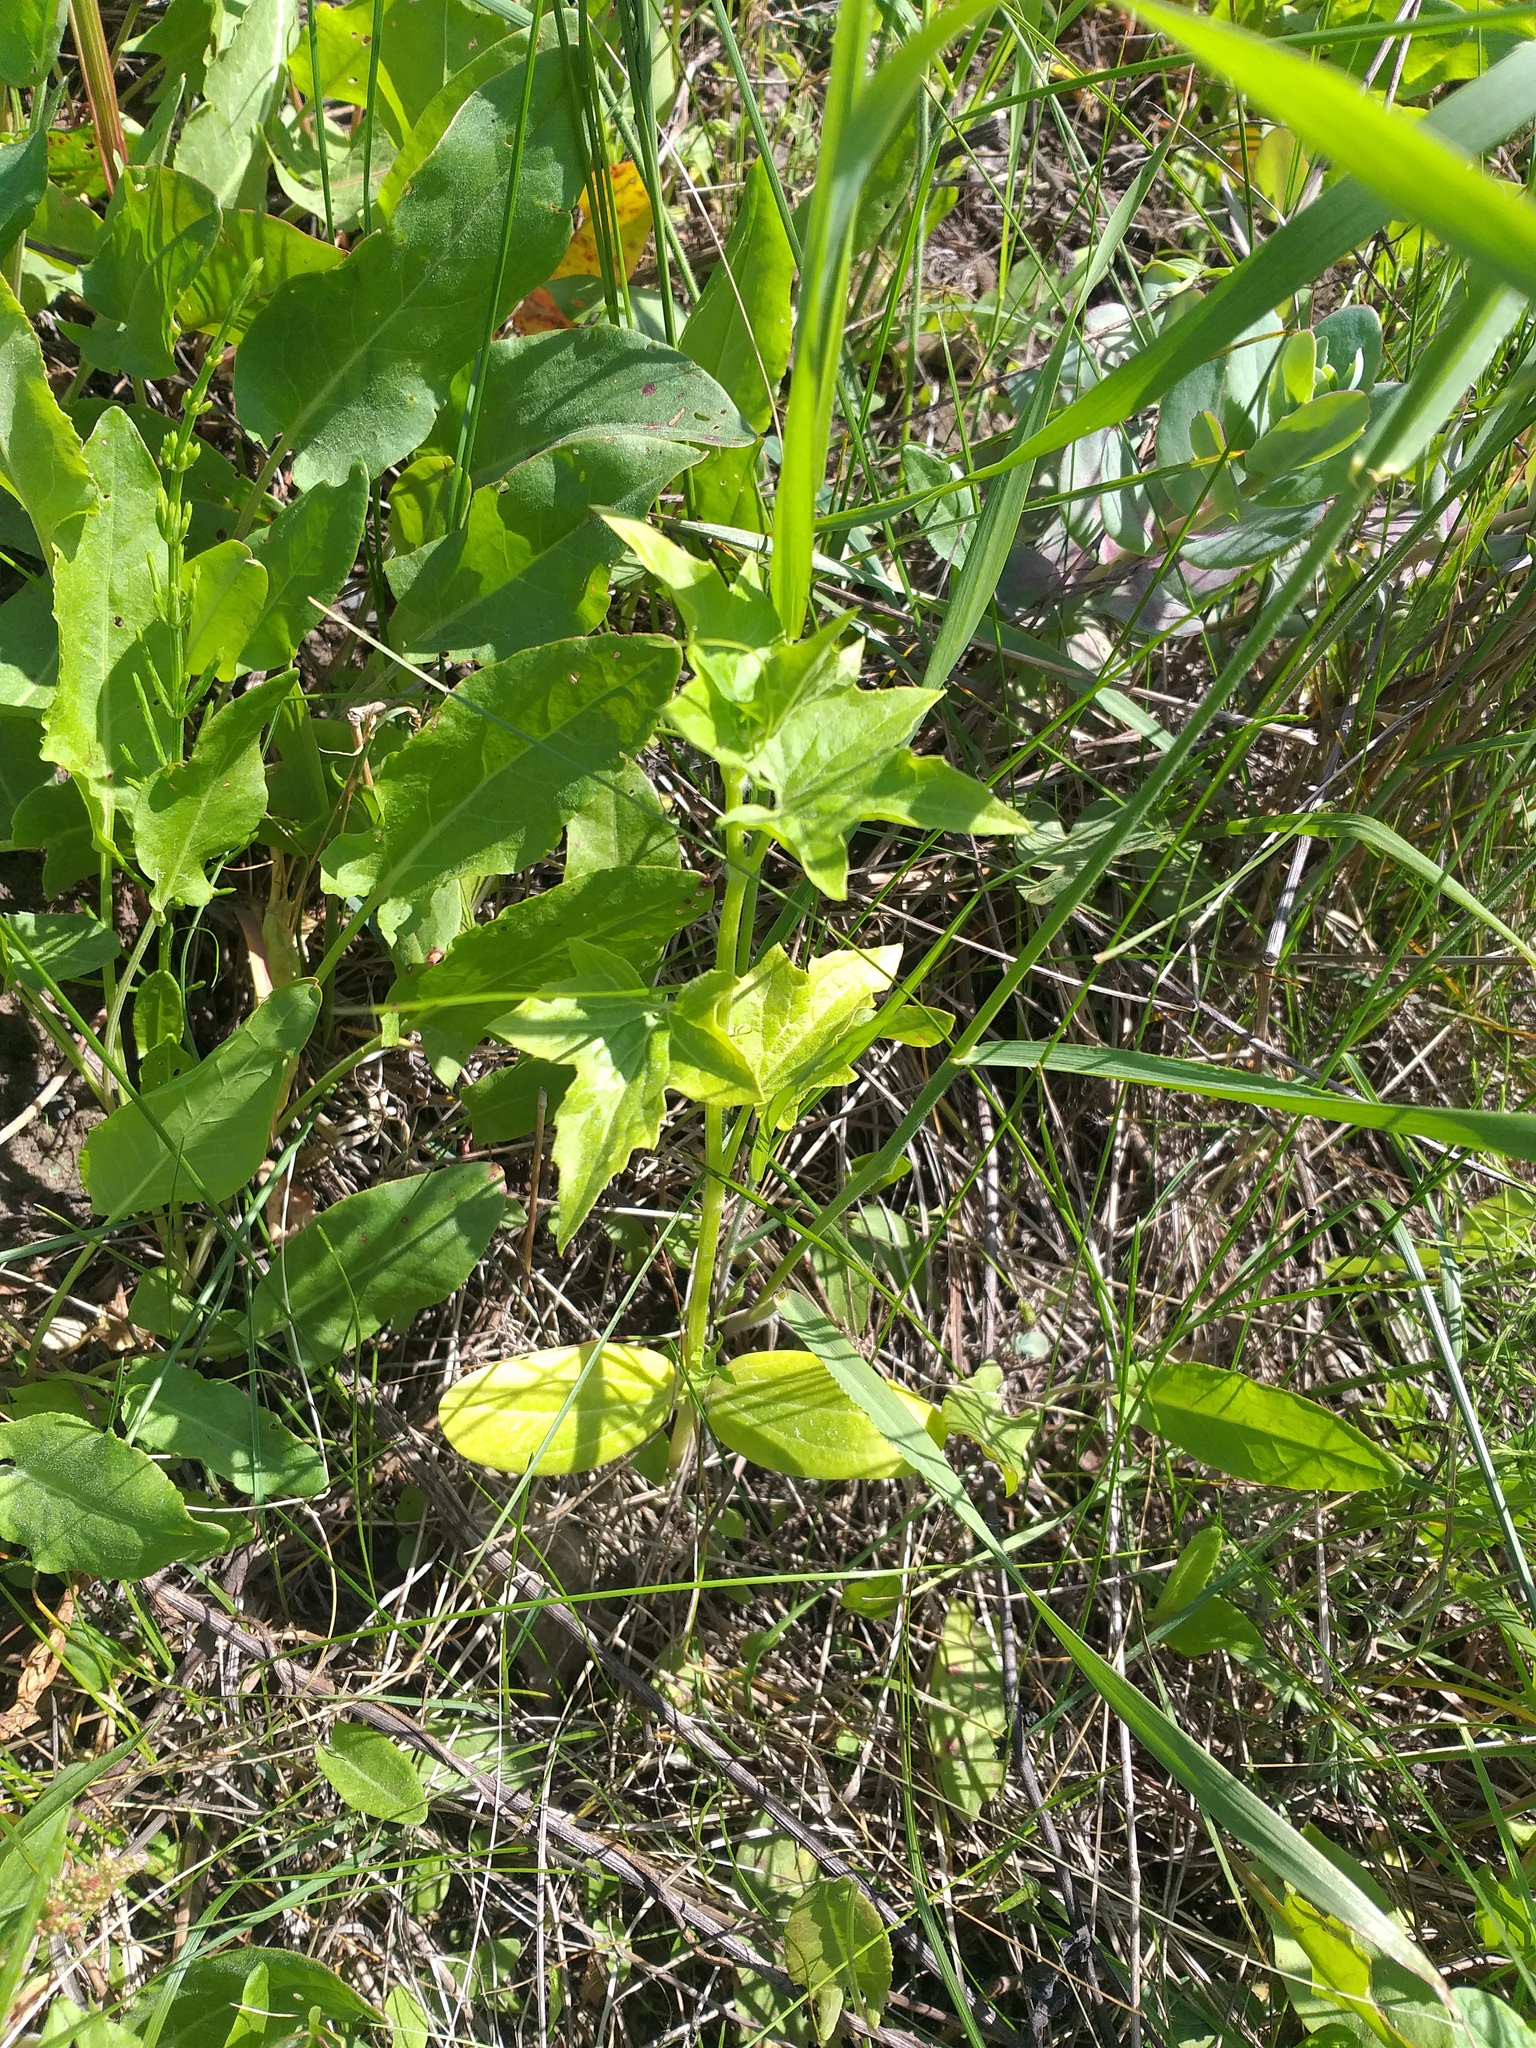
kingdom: Plantae
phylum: Tracheophyta
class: Magnoliopsida
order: Cucurbitales
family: Cucurbitaceae
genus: Echinocystis
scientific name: Echinocystis lobata
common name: Wild cucumber
